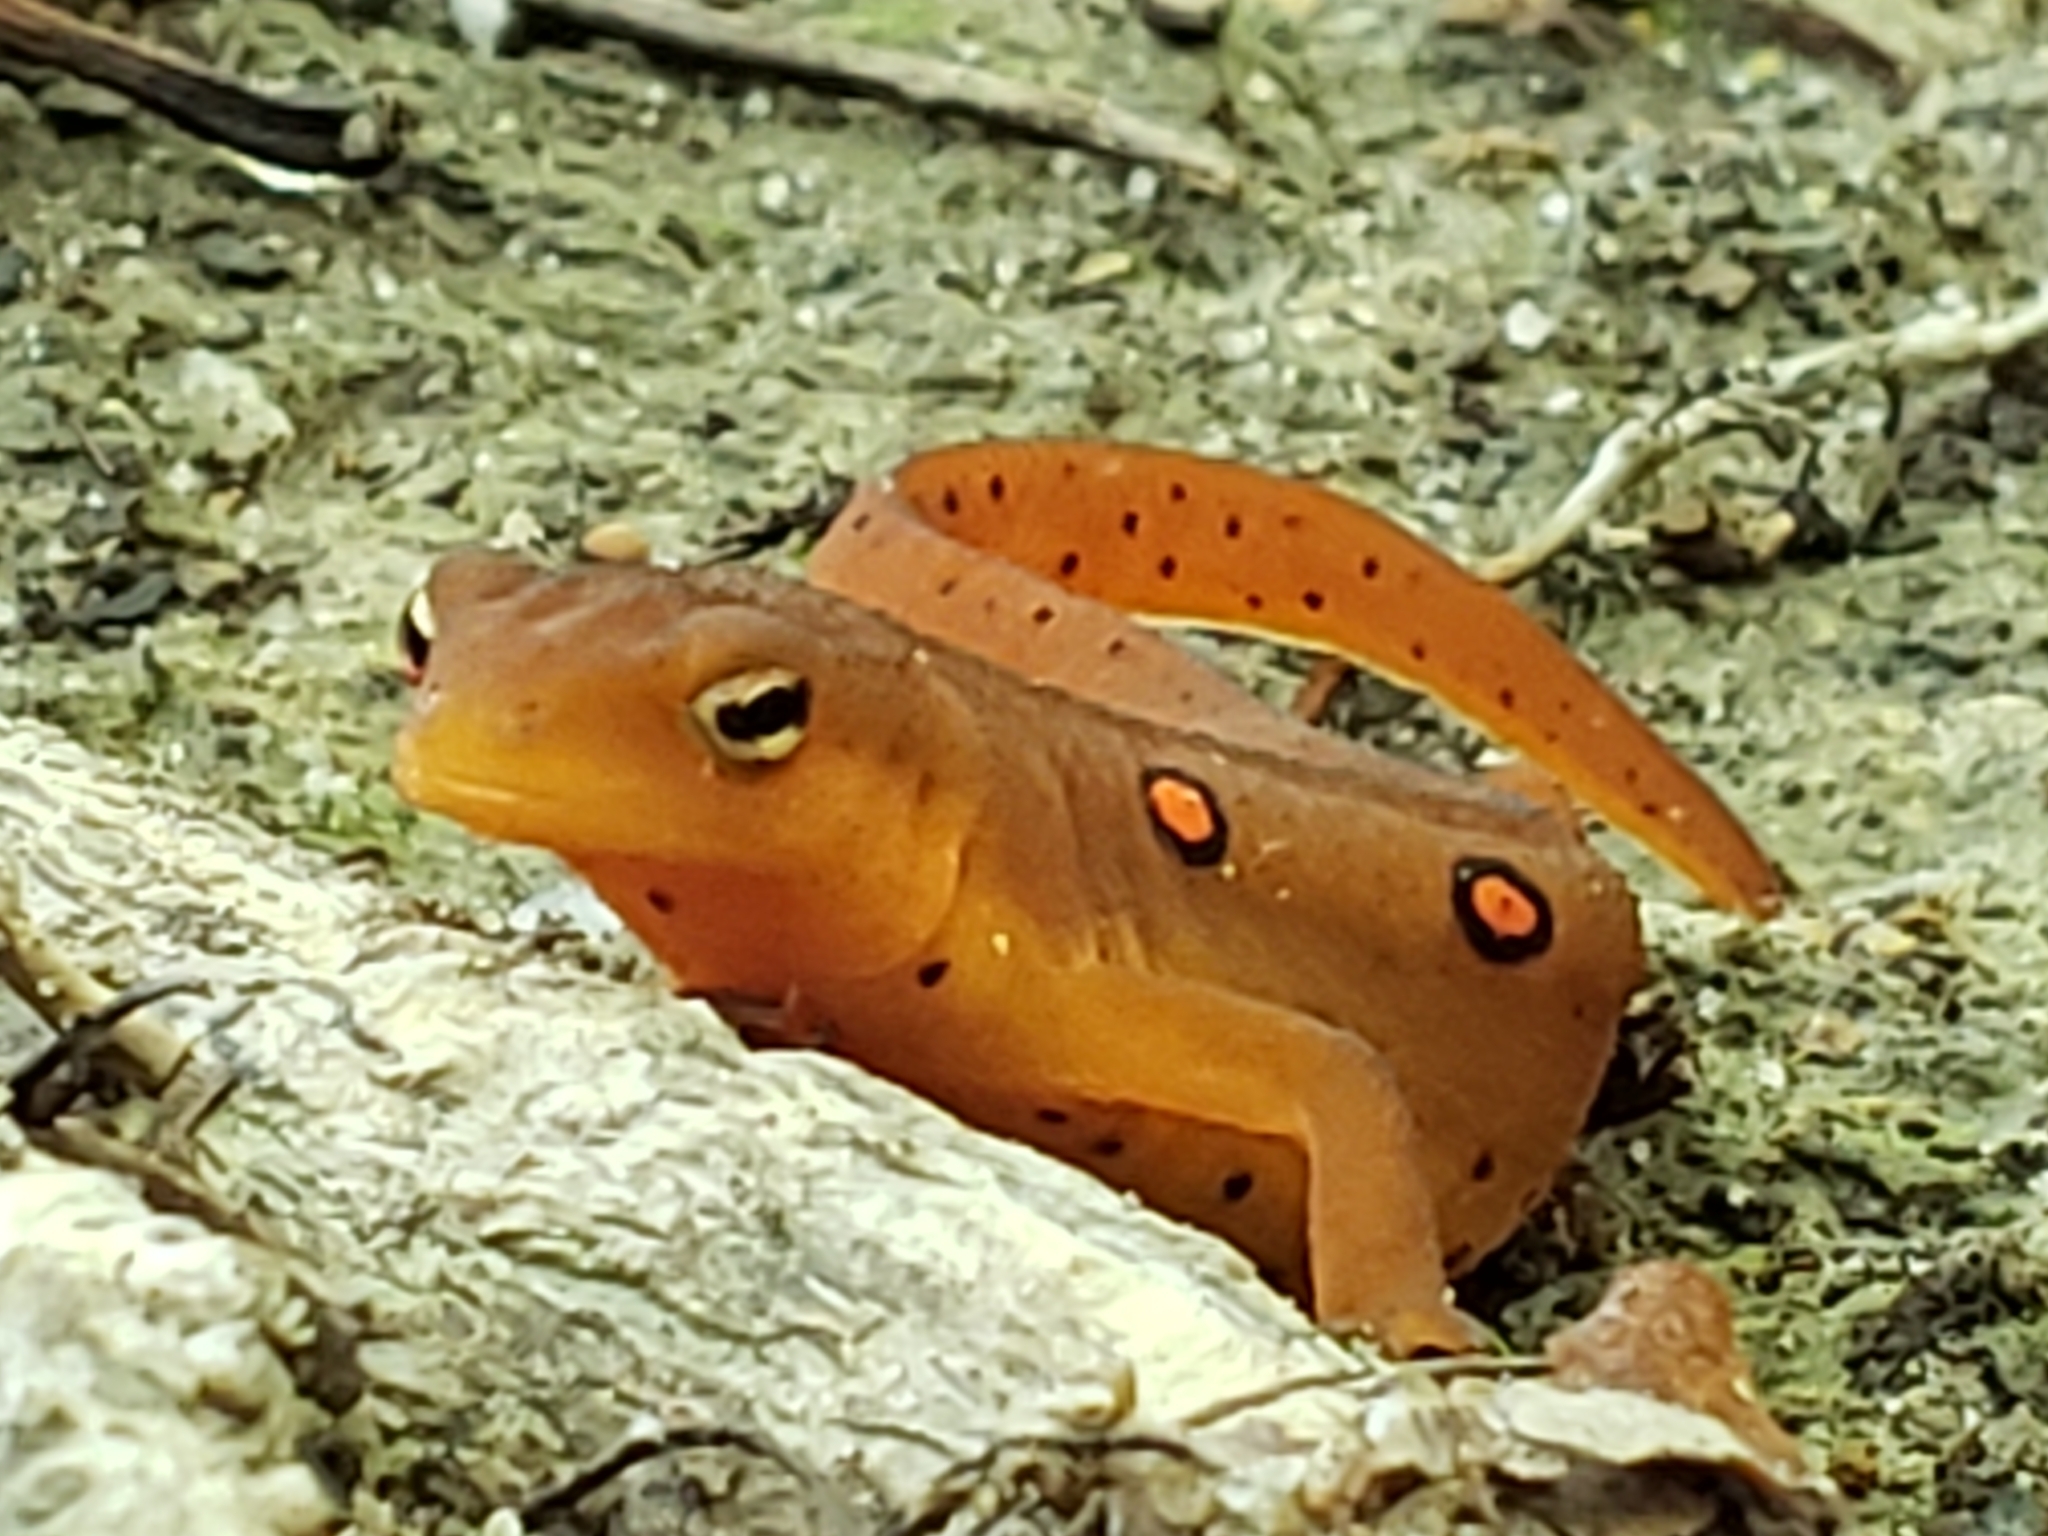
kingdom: Animalia
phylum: Chordata
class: Amphibia
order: Caudata
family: Salamandridae
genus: Notophthalmus
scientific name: Notophthalmus viridescens
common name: Eastern newt
